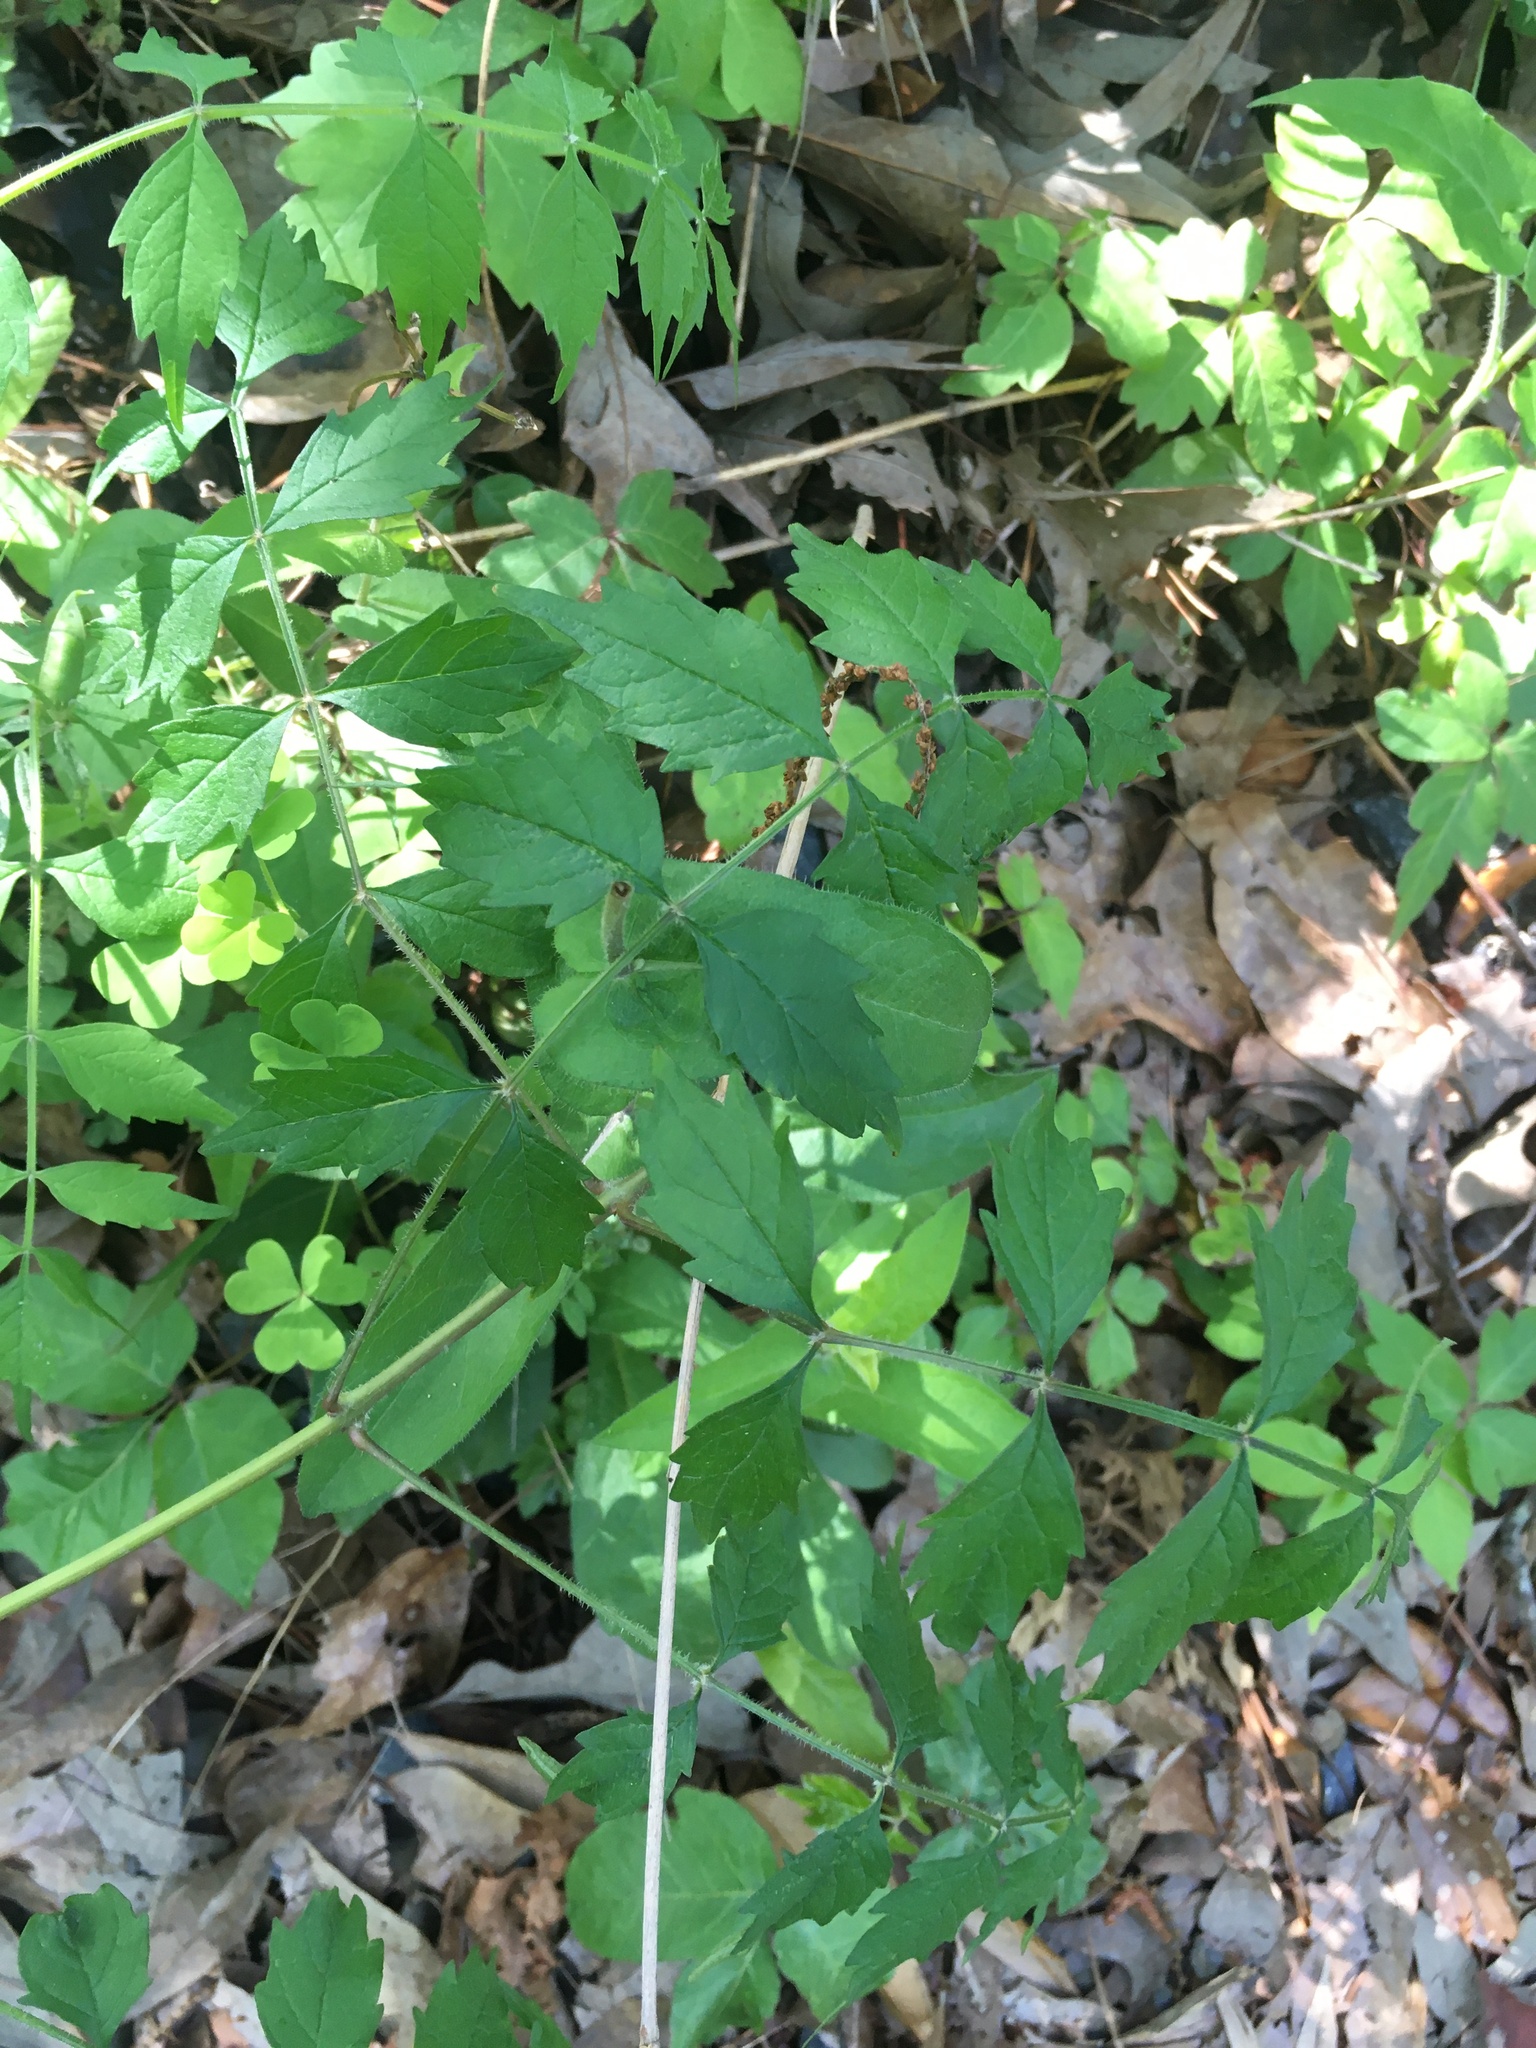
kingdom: Plantae
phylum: Tracheophyta
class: Magnoliopsida
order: Lamiales
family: Bignoniaceae
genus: Campsis
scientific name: Campsis radicans
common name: Trumpet-creeper
